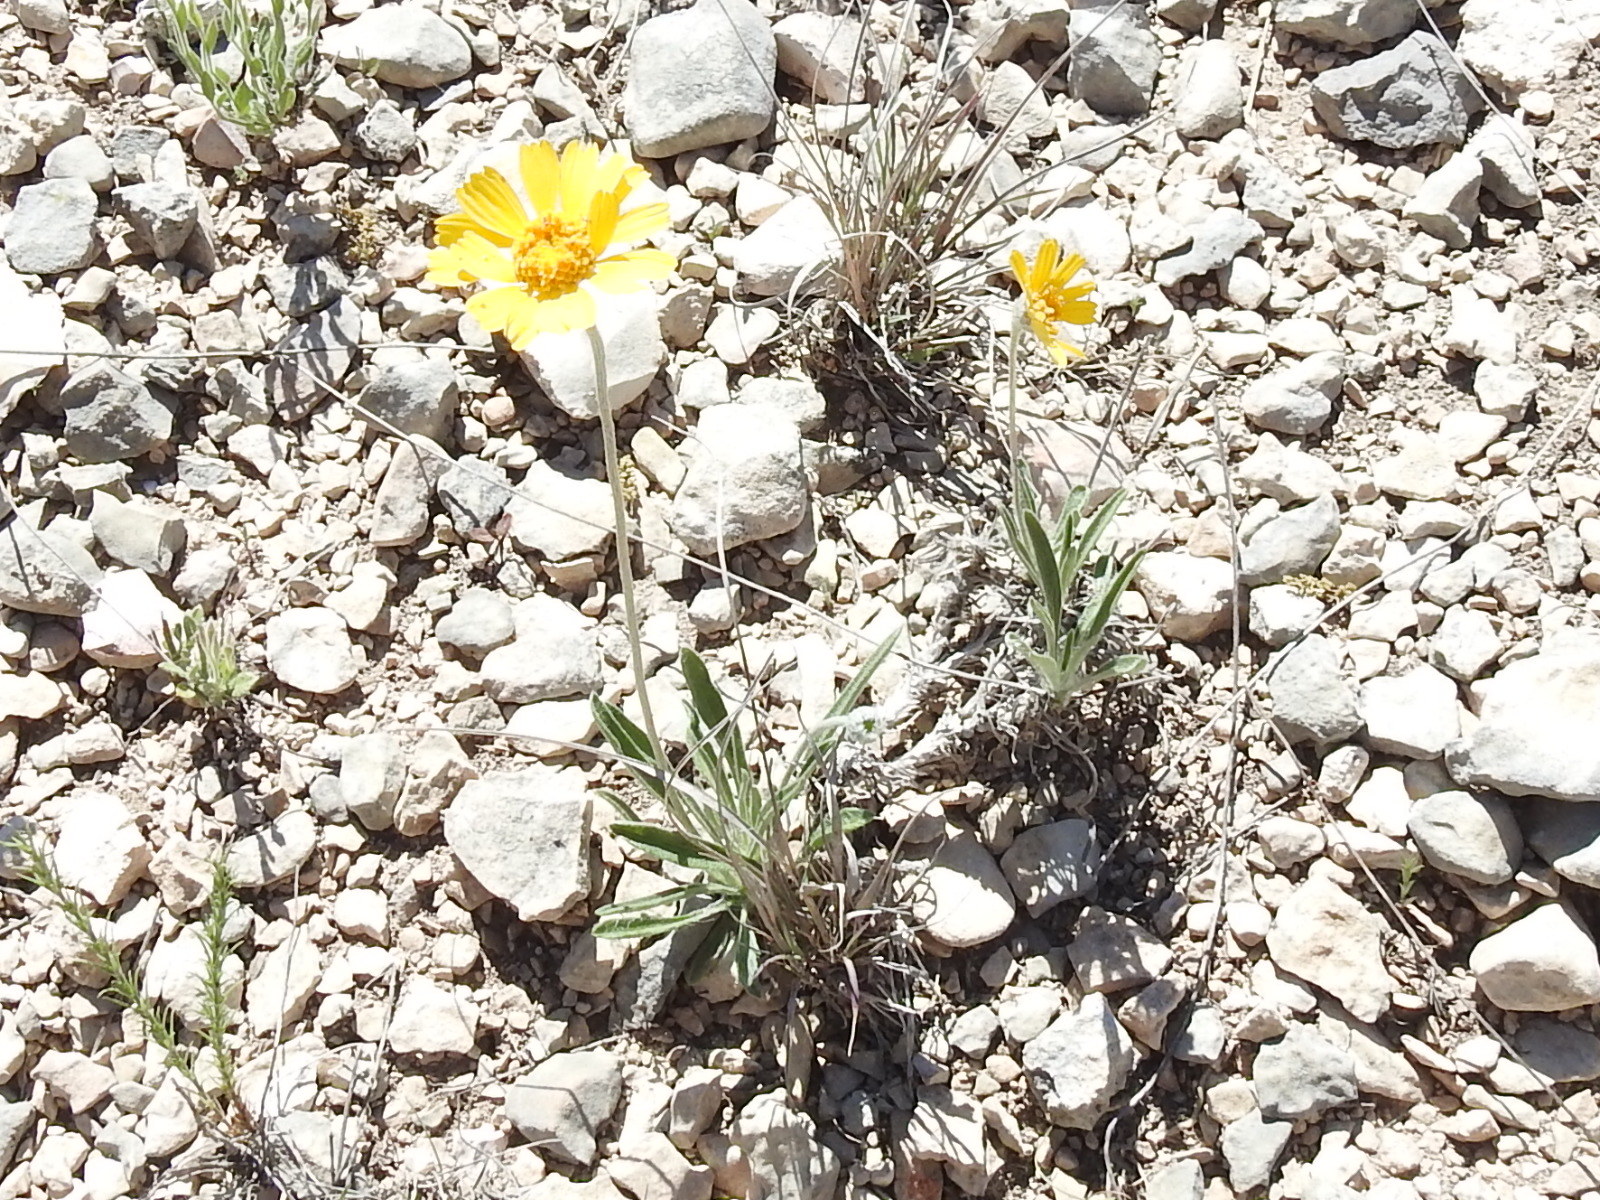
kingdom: Plantae
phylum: Tracheophyta
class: Magnoliopsida
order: Asterales
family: Asteraceae
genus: Tetraneuris
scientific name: Tetraneuris scaposa
